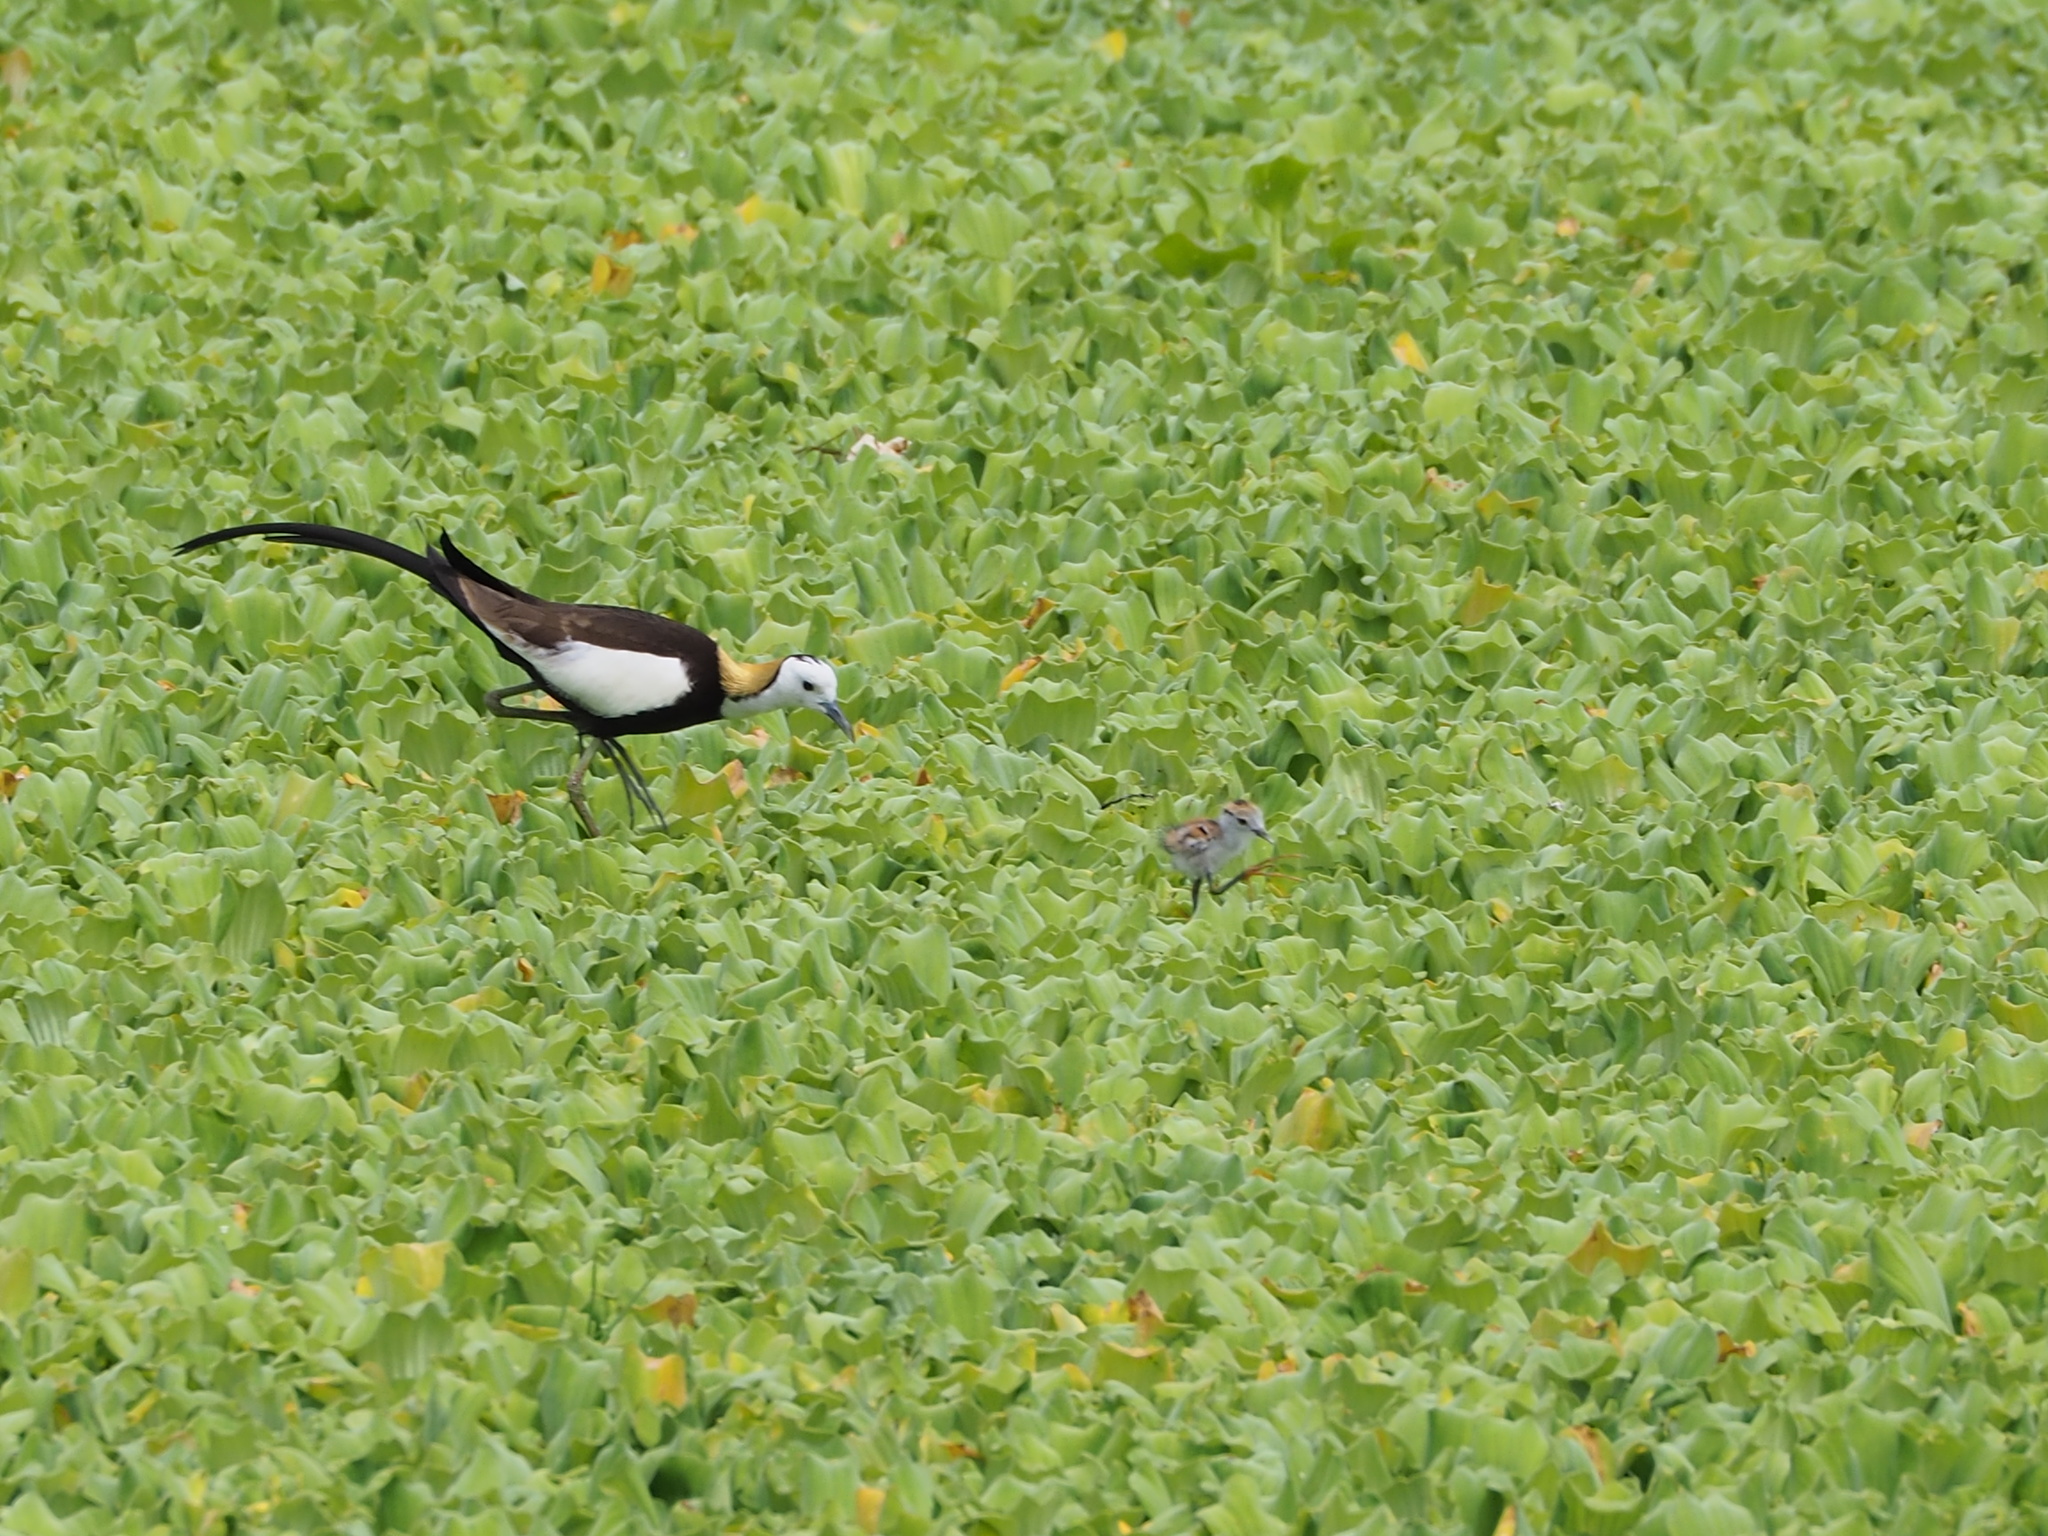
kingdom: Animalia
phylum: Chordata
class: Aves
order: Charadriiformes
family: Jacanidae
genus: Hydrophasianus
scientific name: Hydrophasianus chirurgus
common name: Pheasant-tailed jacana
